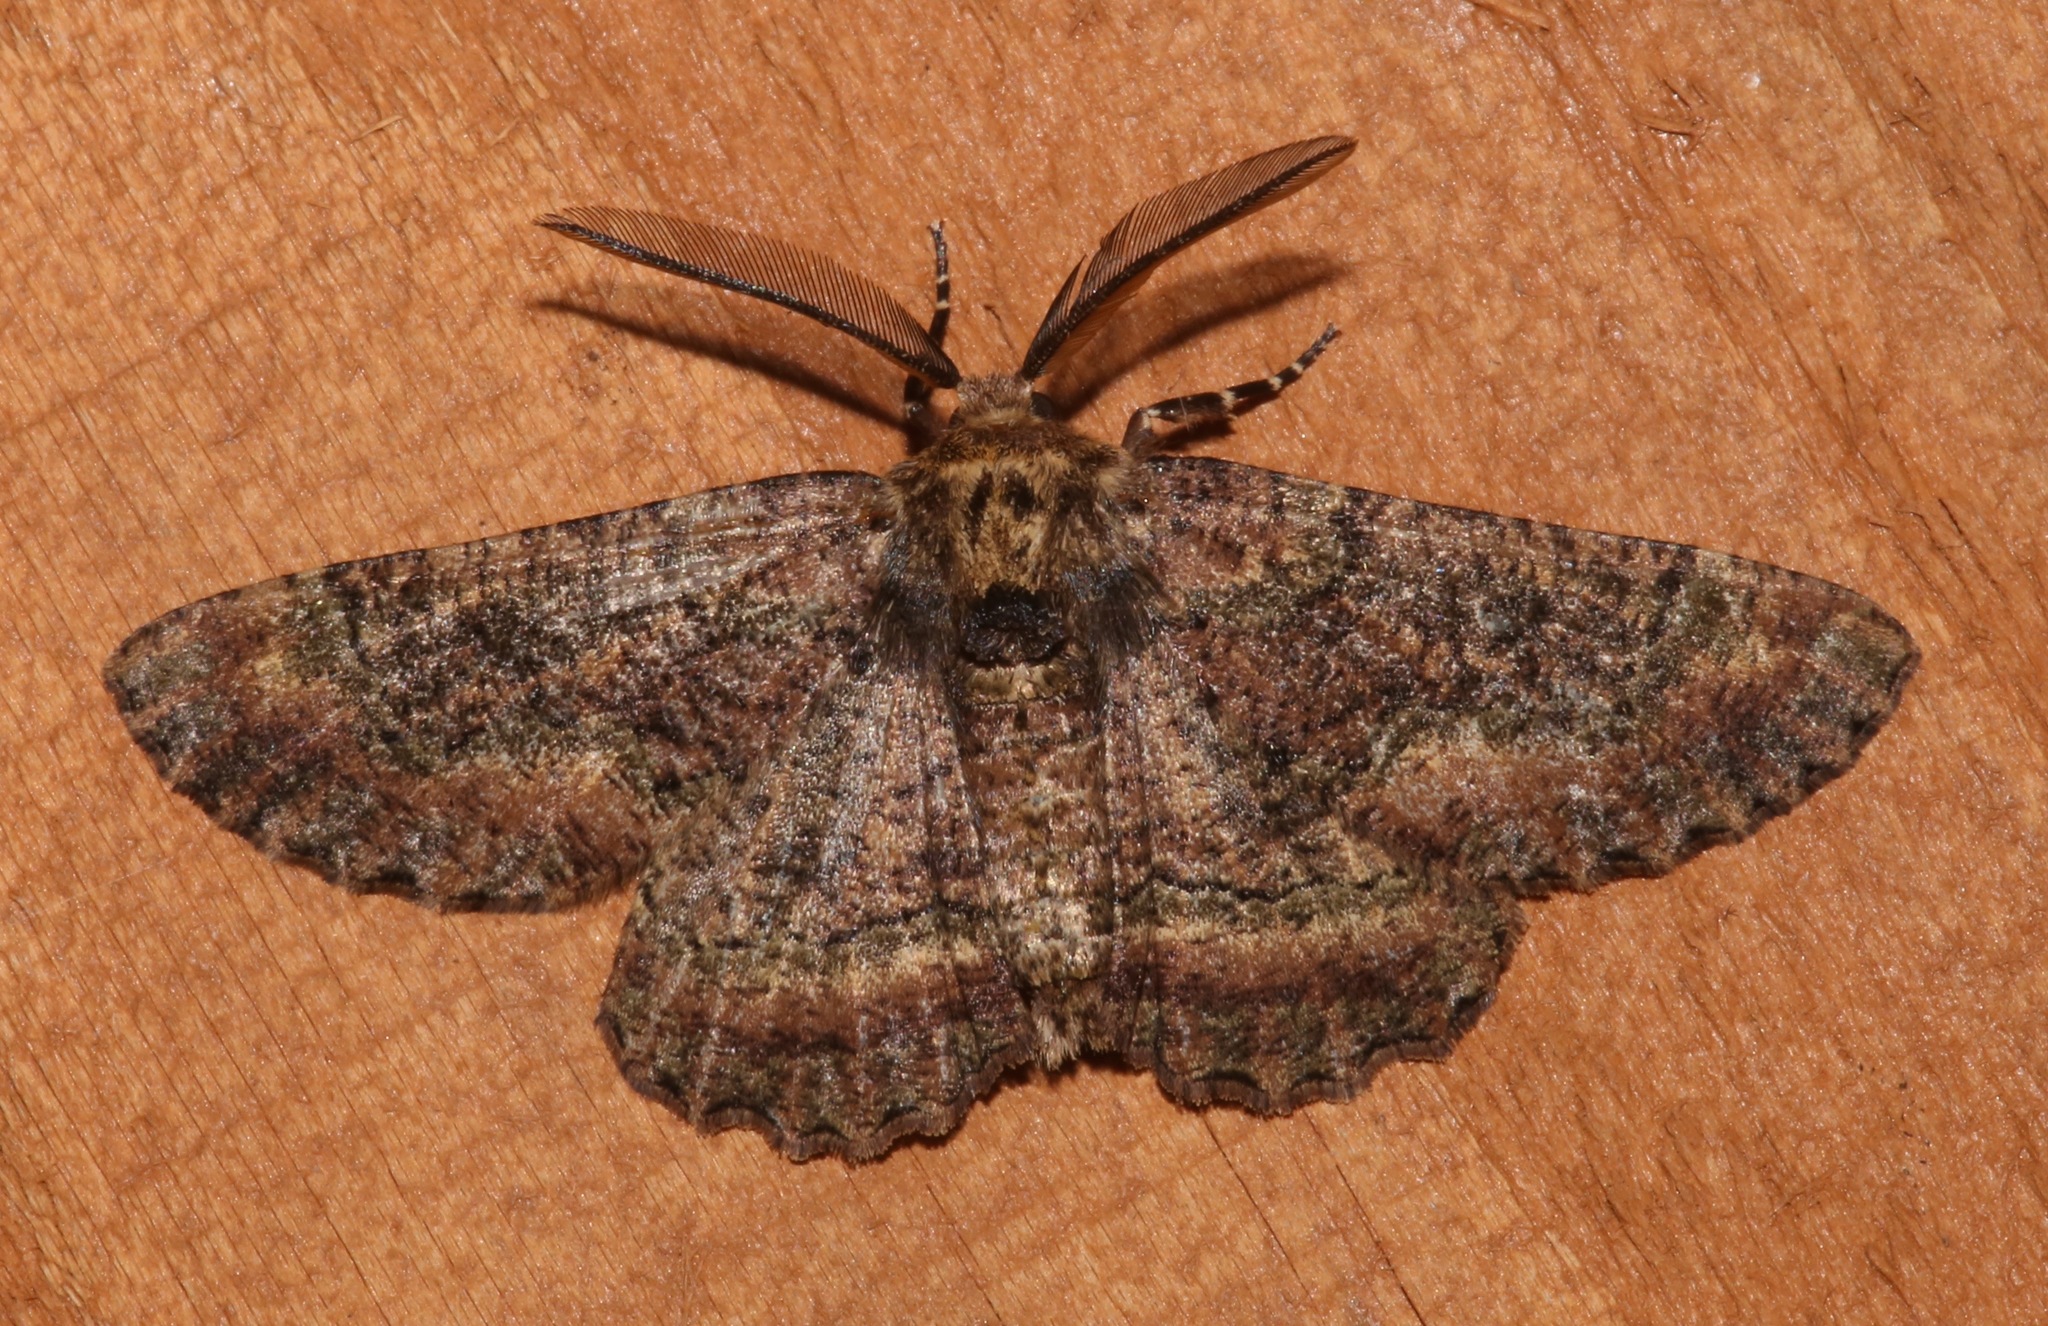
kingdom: Animalia
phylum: Arthropoda
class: Insecta
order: Lepidoptera
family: Geometridae
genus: Phaeoura
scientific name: Phaeoura quernaria
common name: Oak beauty
